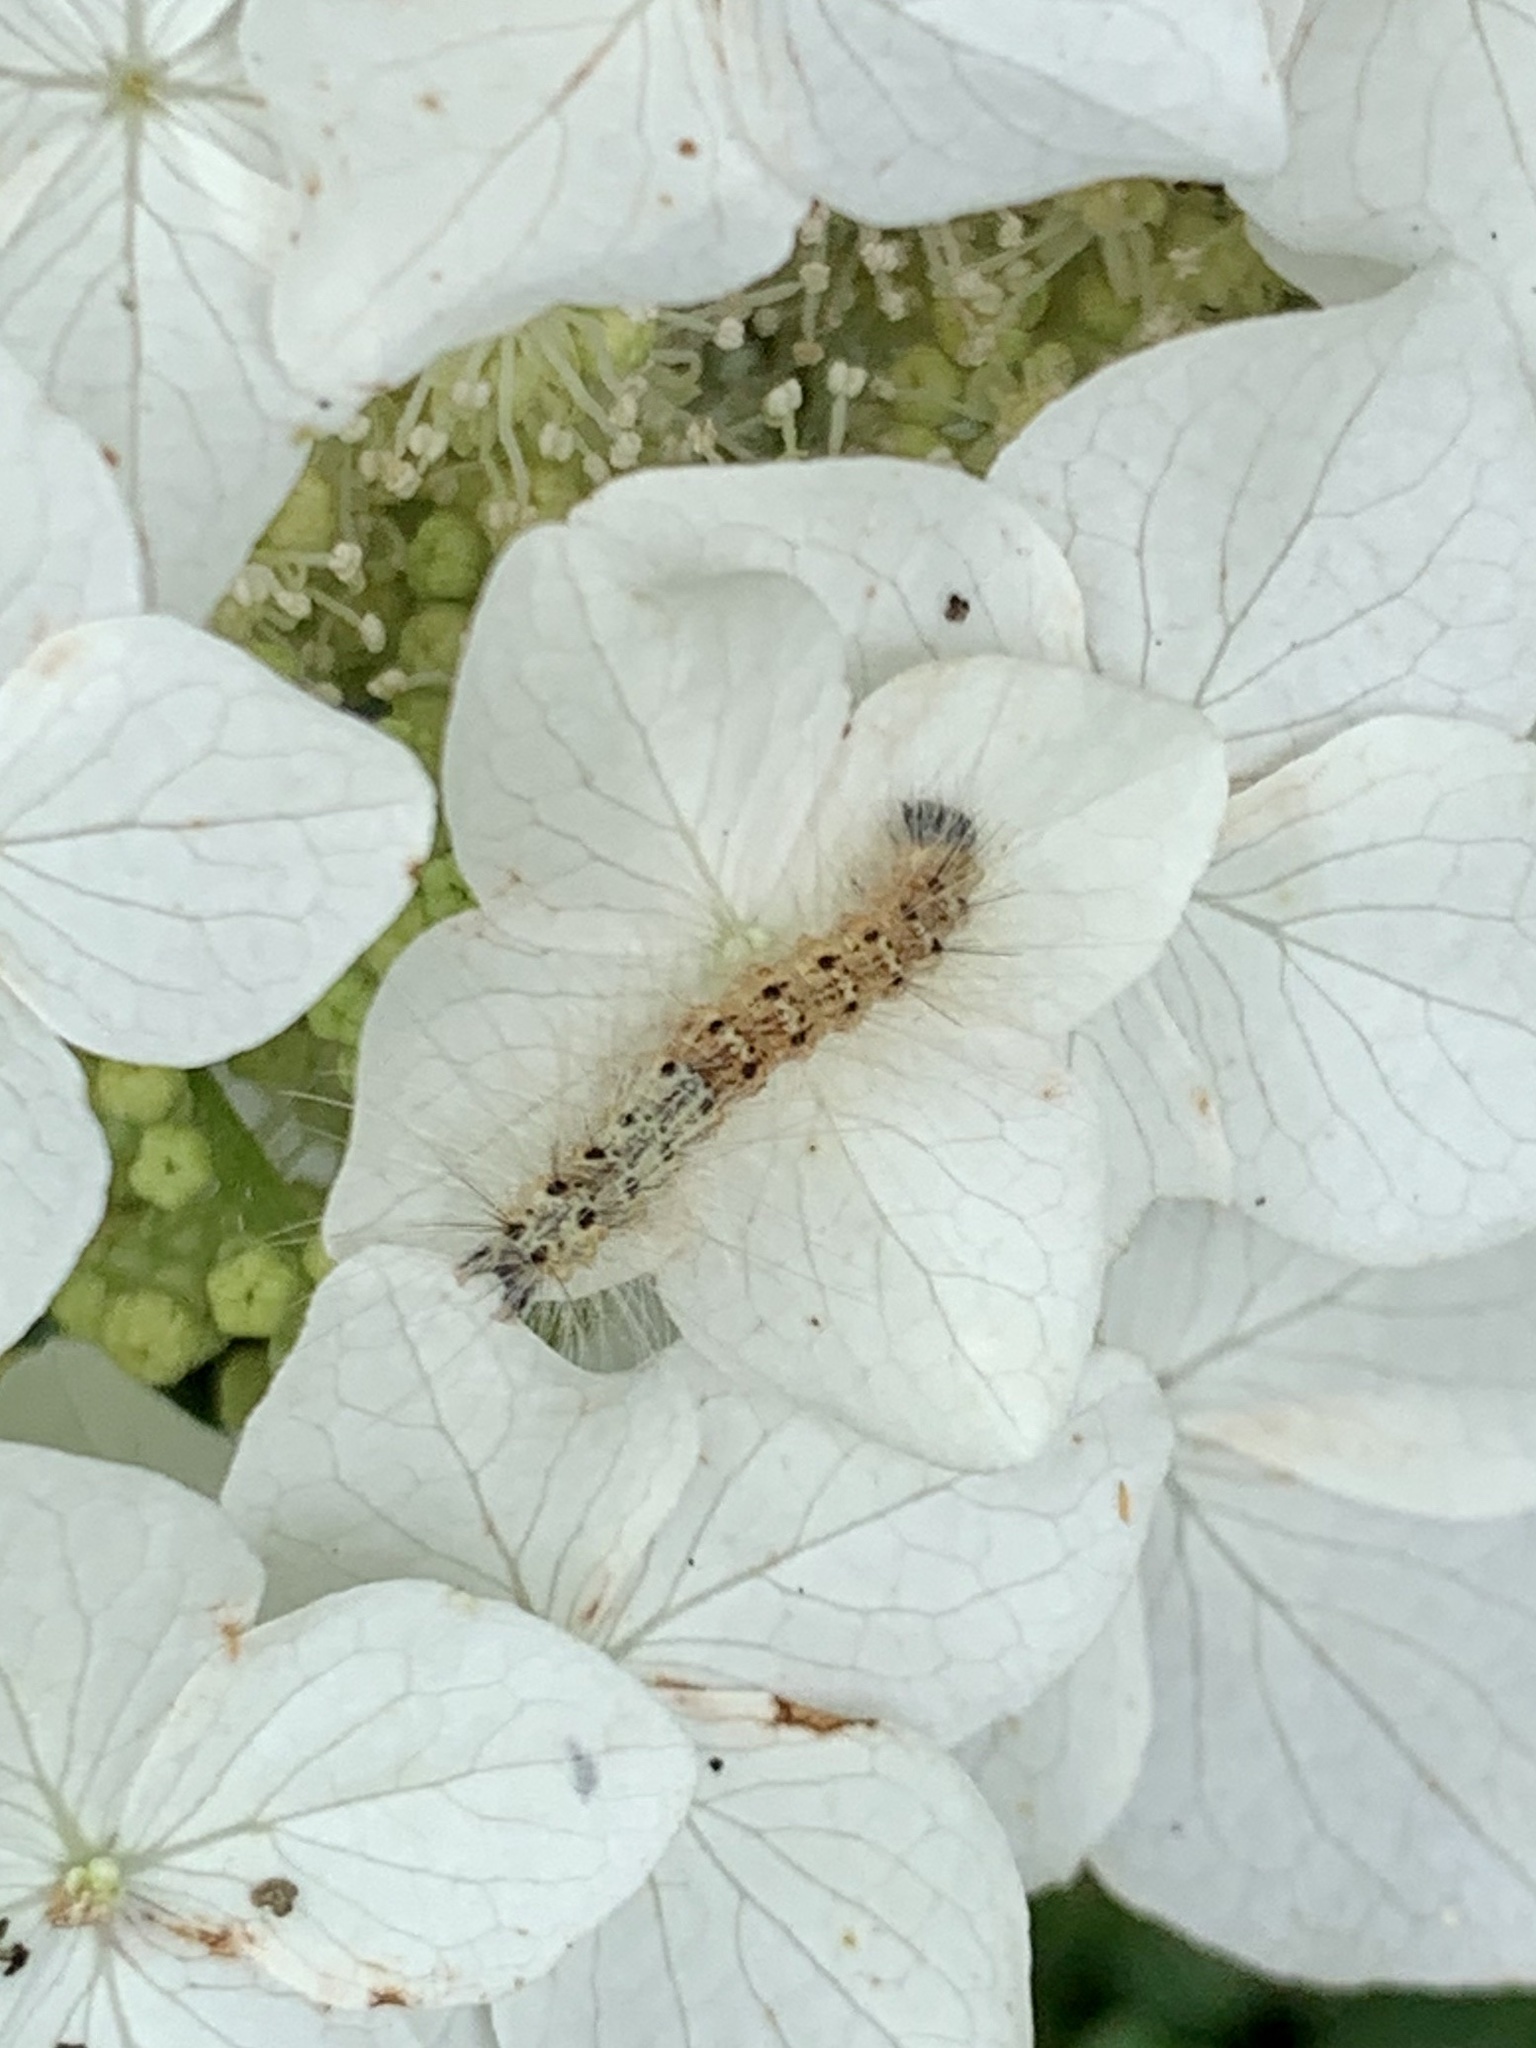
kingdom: Animalia
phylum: Arthropoda
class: Insecta
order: Lepidoptera
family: Erebidae
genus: Hyphantria
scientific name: Hyphantria cunea
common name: American white moth
